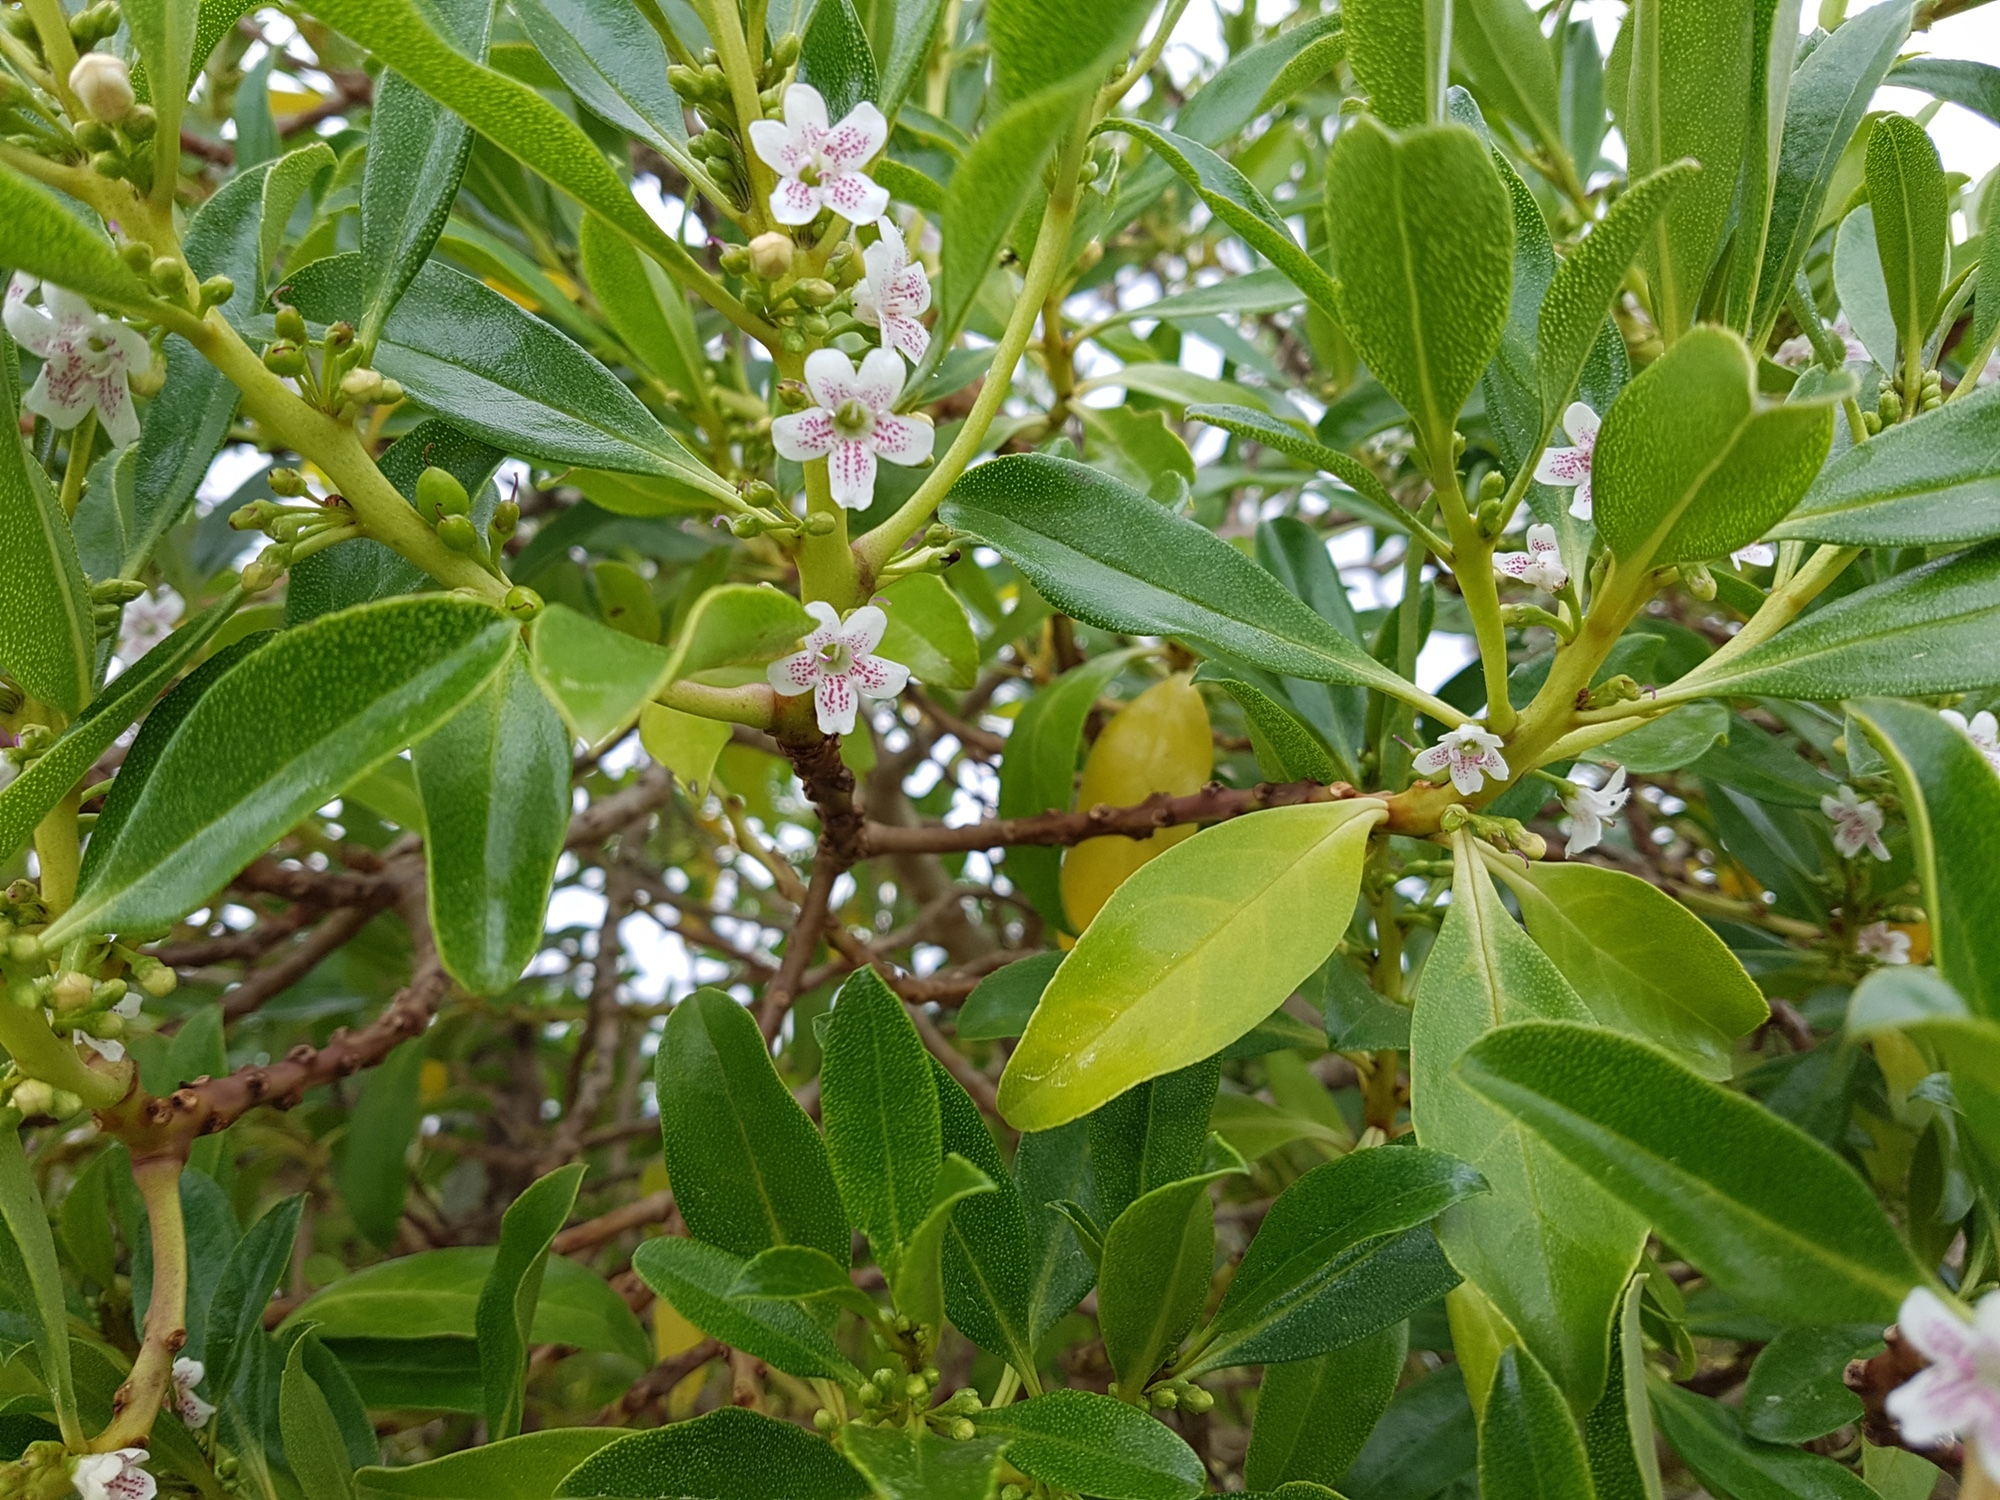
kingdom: Plantae
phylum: Tracheophyta
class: Magnoliopsida
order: Lamiales
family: Scrophulariaceae
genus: Myoporum
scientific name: Myoporum laetum
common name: Ngaio tree
